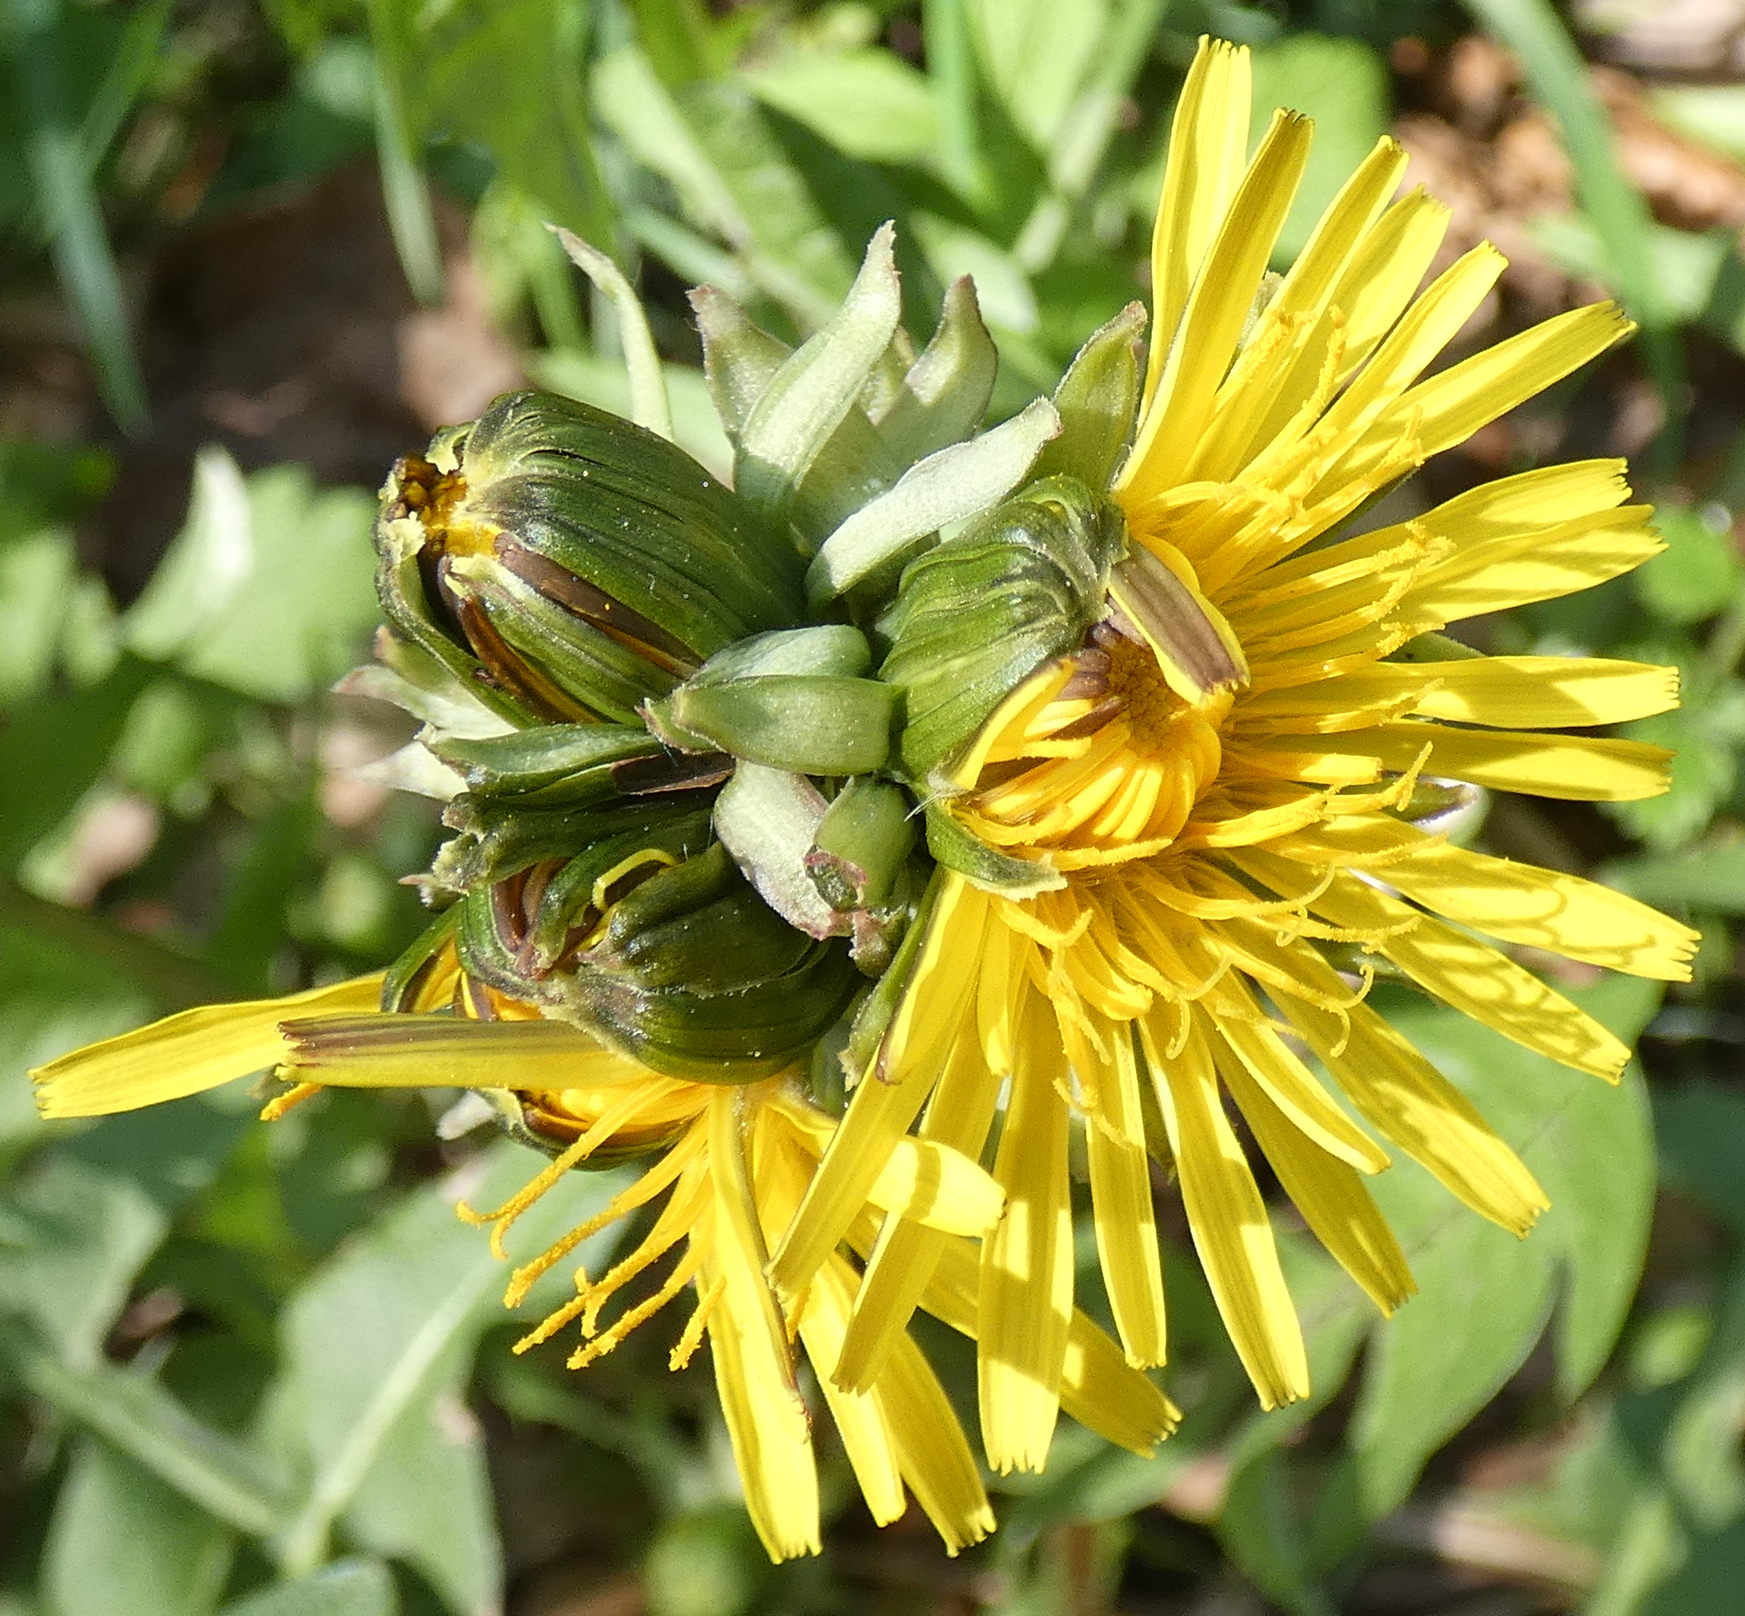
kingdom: Plantae
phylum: Tracheophyta
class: Magnoliopsida
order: Asterales
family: Asteraceae
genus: Taraxacum
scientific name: Taraxacum
